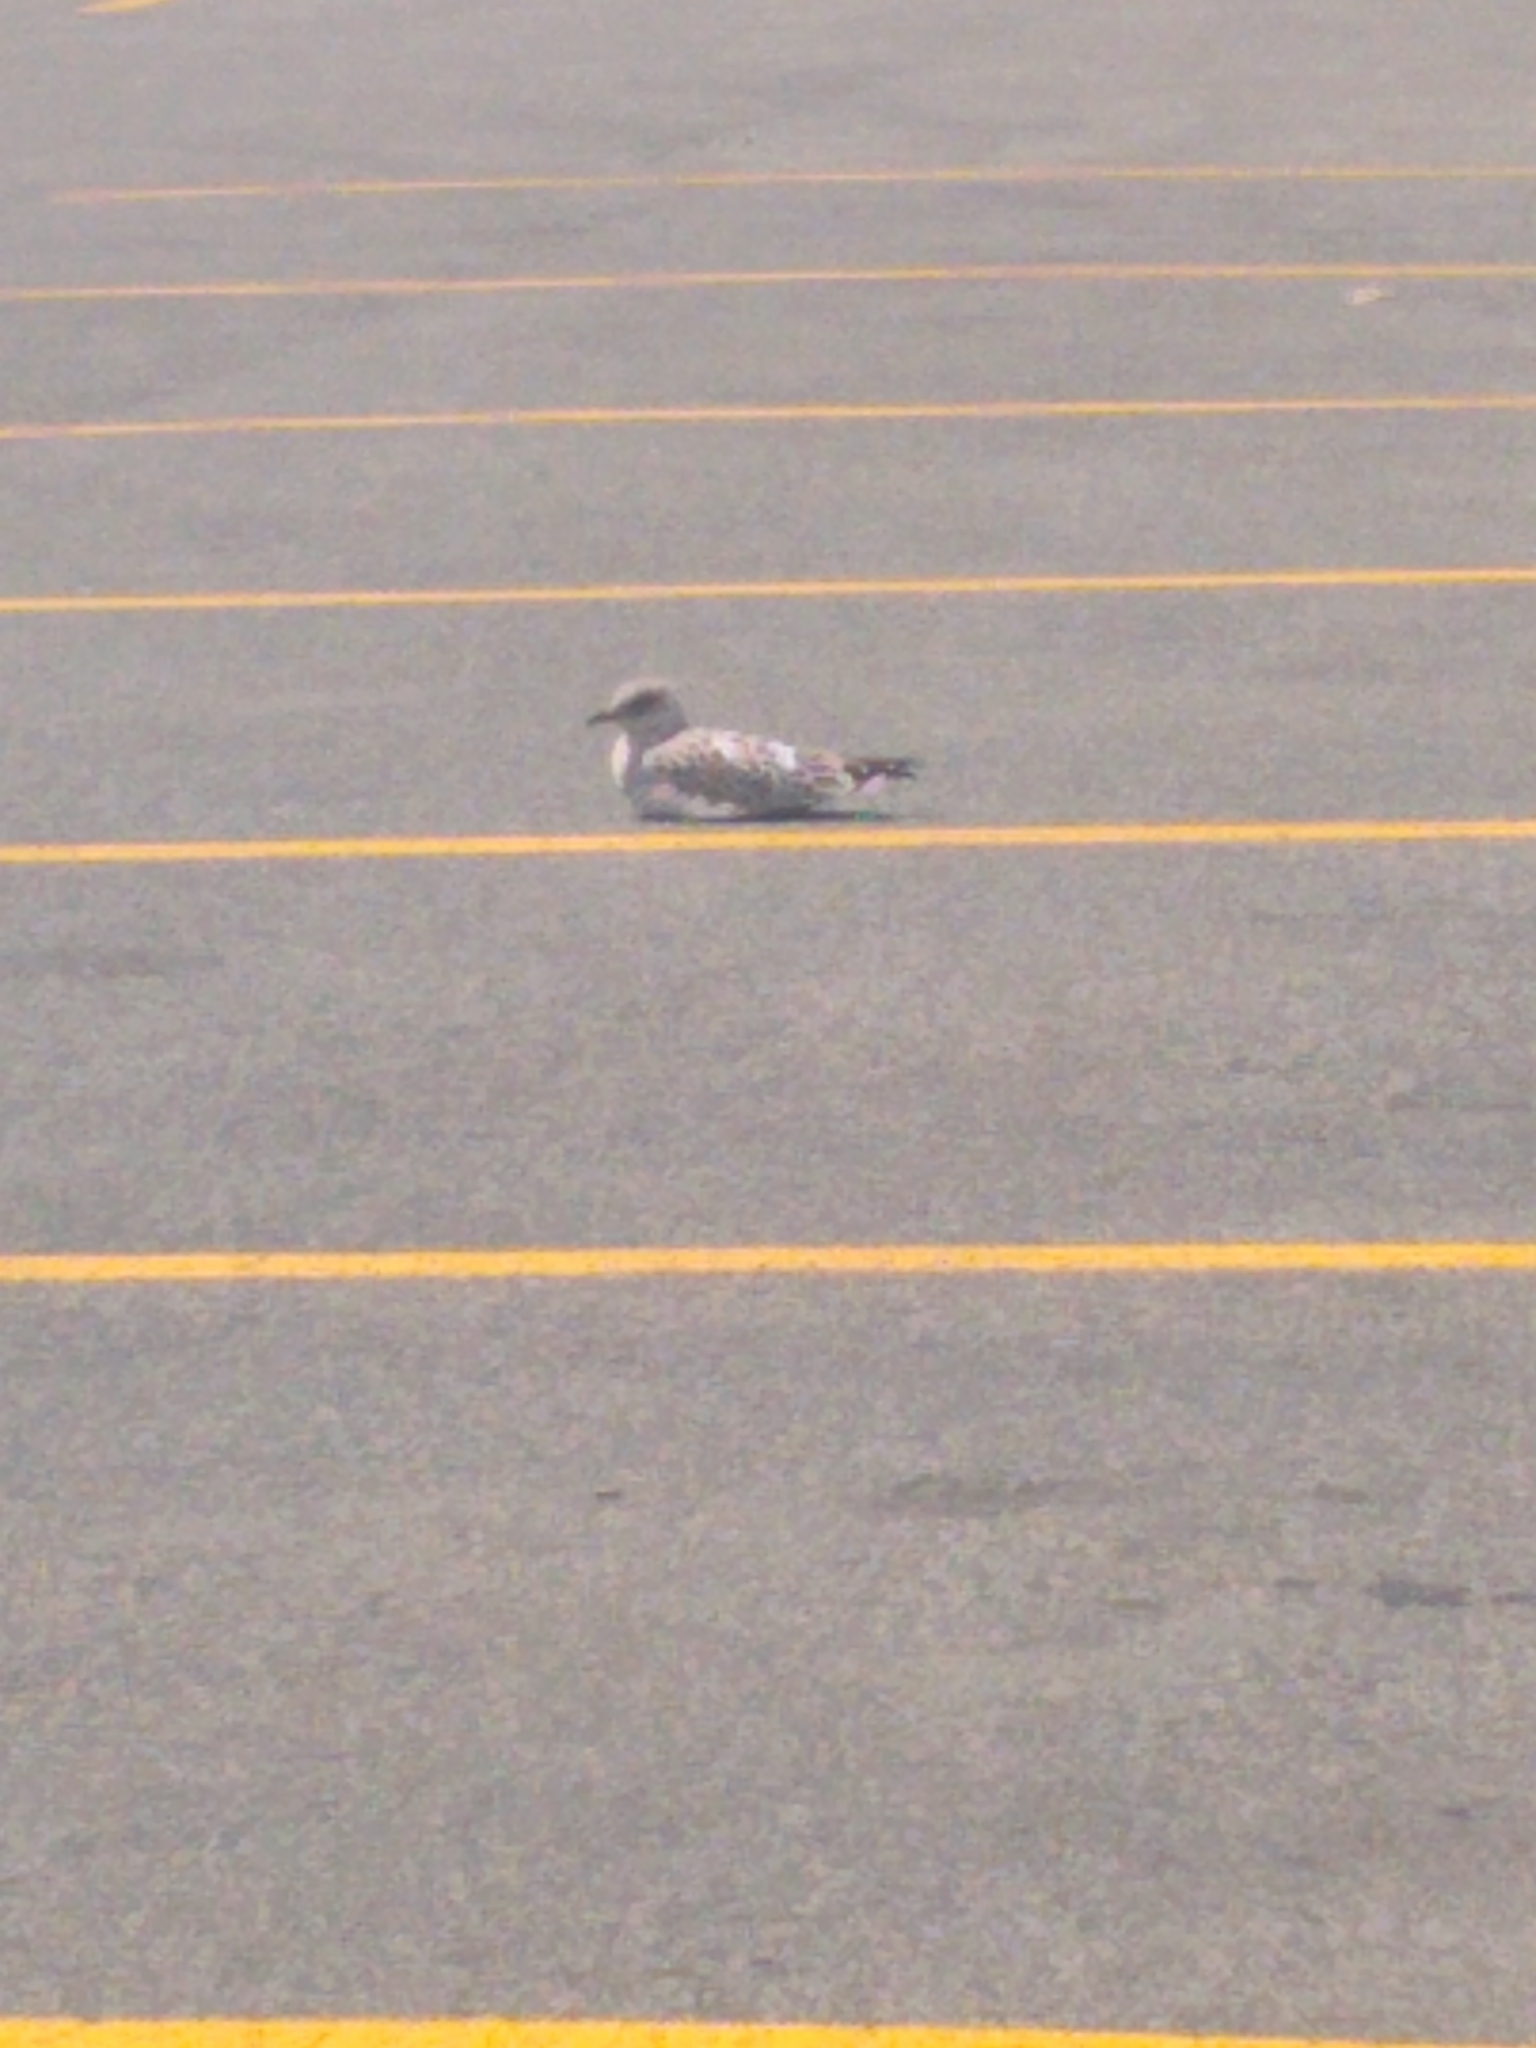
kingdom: Animalia
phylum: Chordata
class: Aves
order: Charadriiformes
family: Laridae
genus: Larus
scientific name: Larus delawarensis
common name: Ring-billed gull
